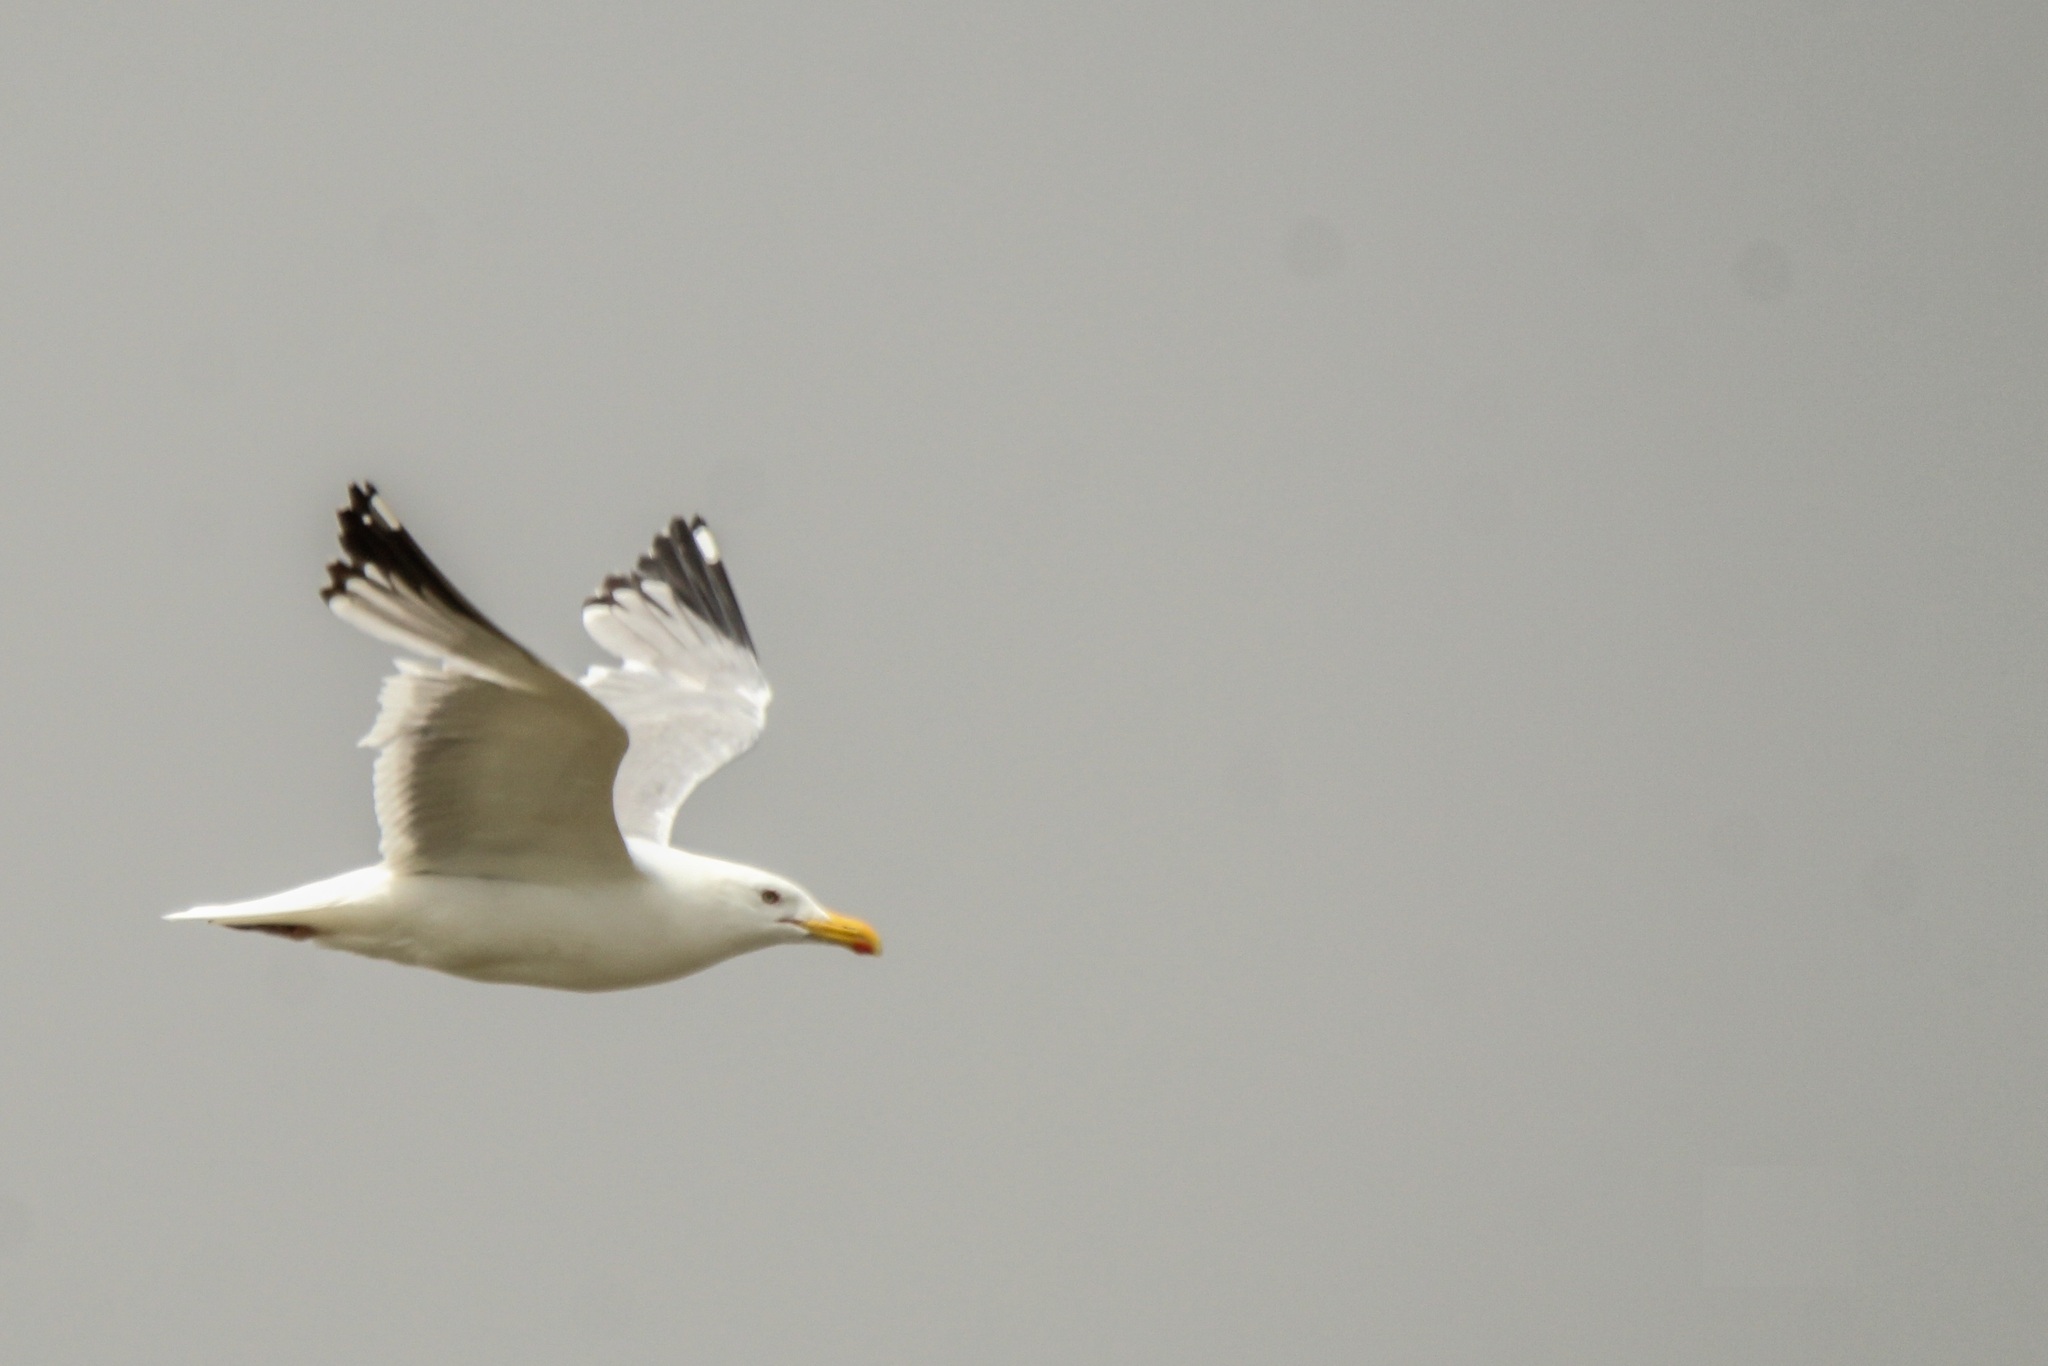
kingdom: Animalia
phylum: Chordata
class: Aves
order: Charadriiformes
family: Laridae
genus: Larus
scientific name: Larus vegae
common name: Vega gull
